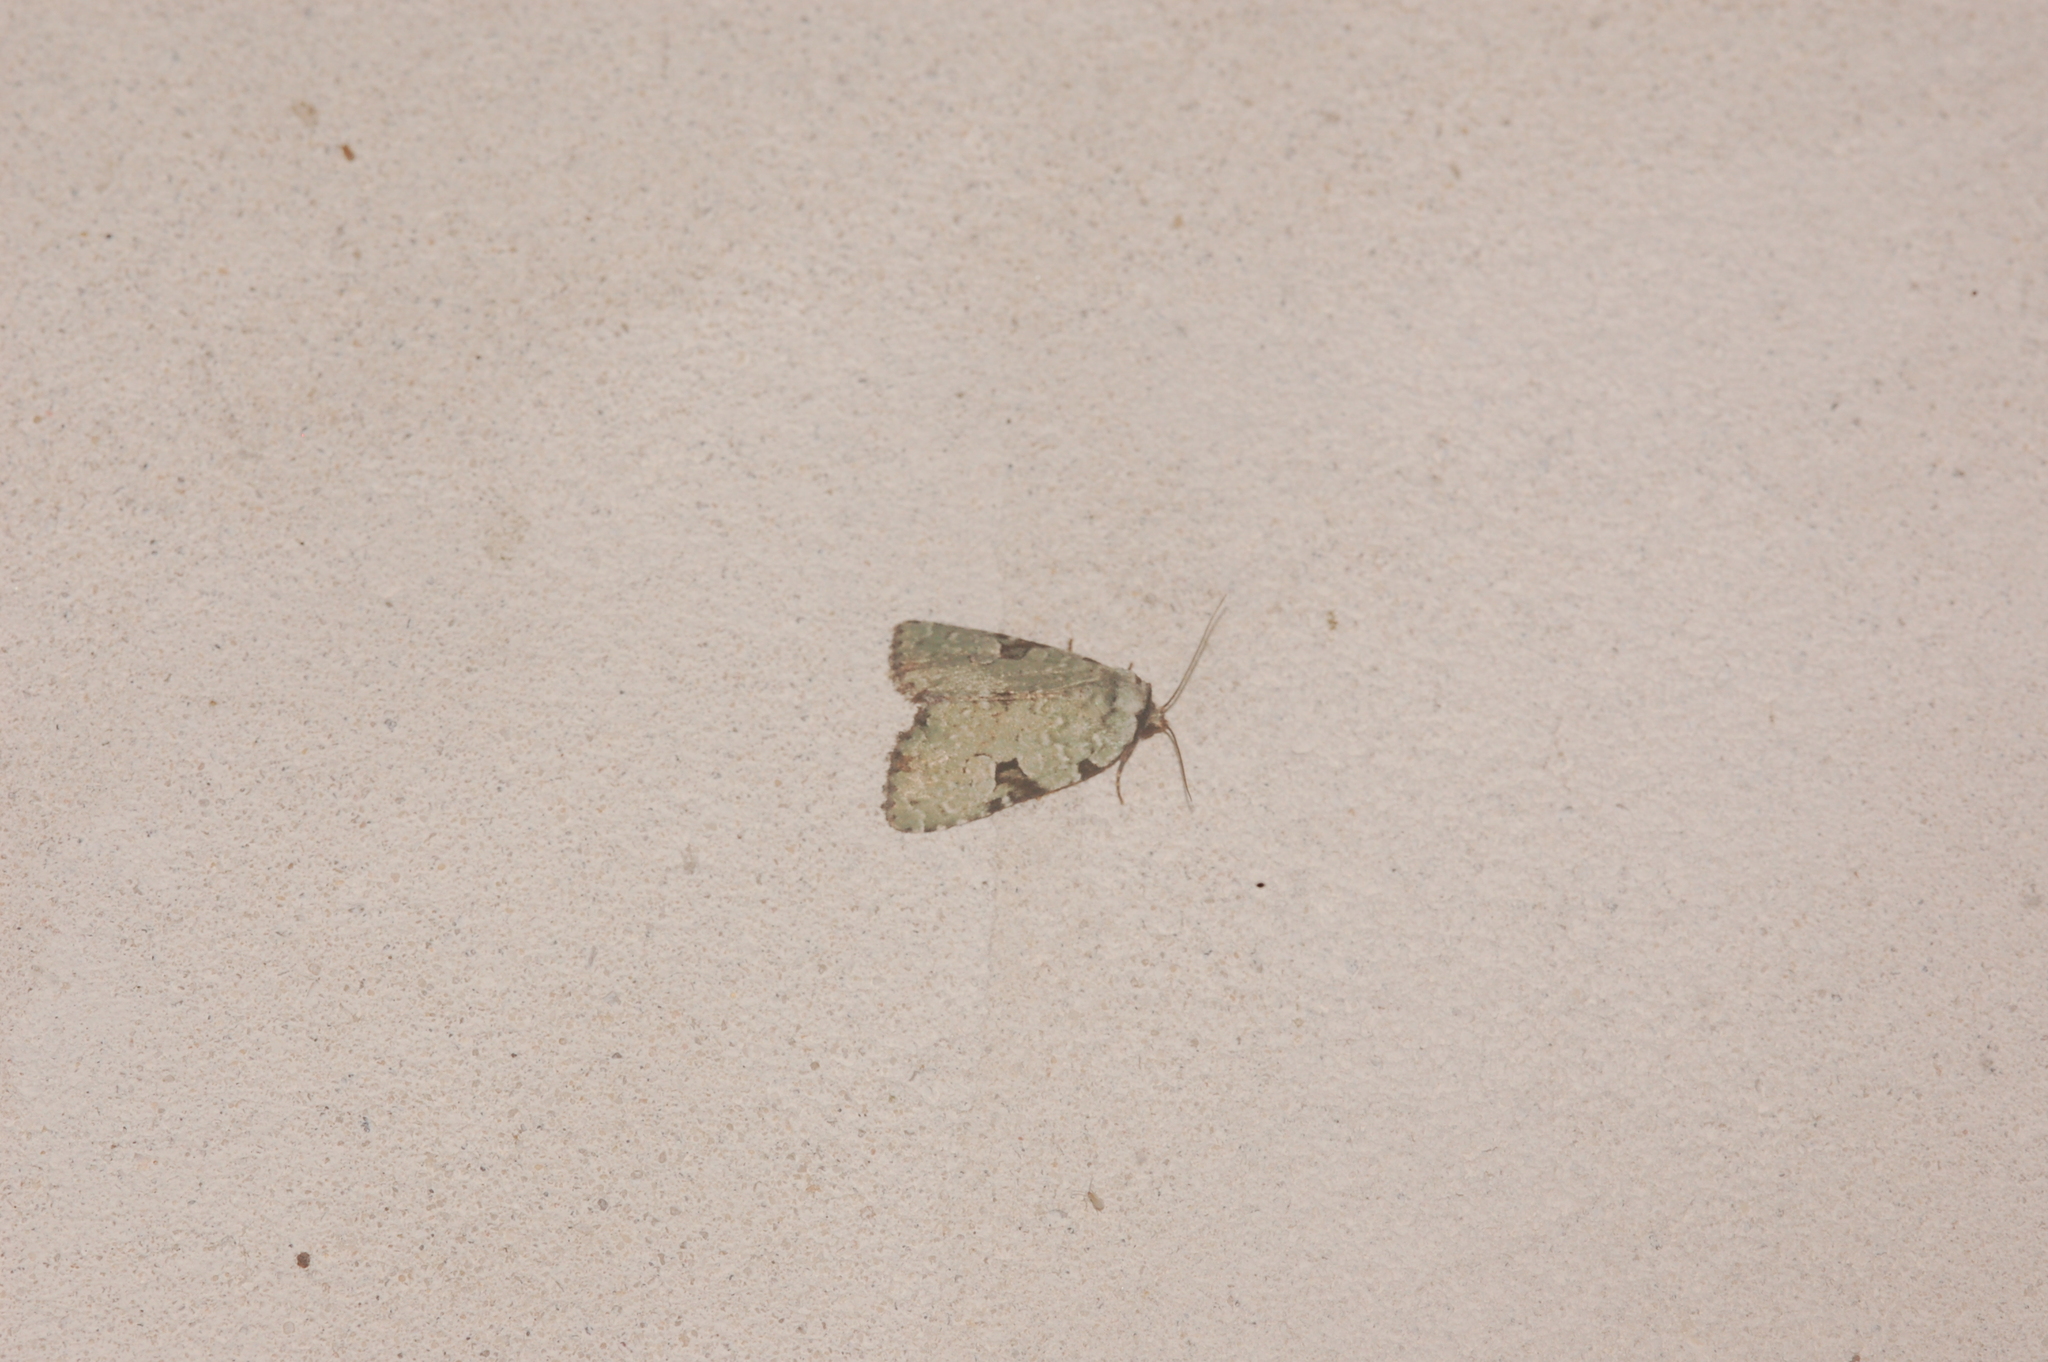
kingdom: Animalia
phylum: Arthropoda
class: Insecta
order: Lepidoptera
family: Noctuidae
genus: Leuconycta
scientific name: Leuconycta diphteroides
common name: Green leuconycta moth
